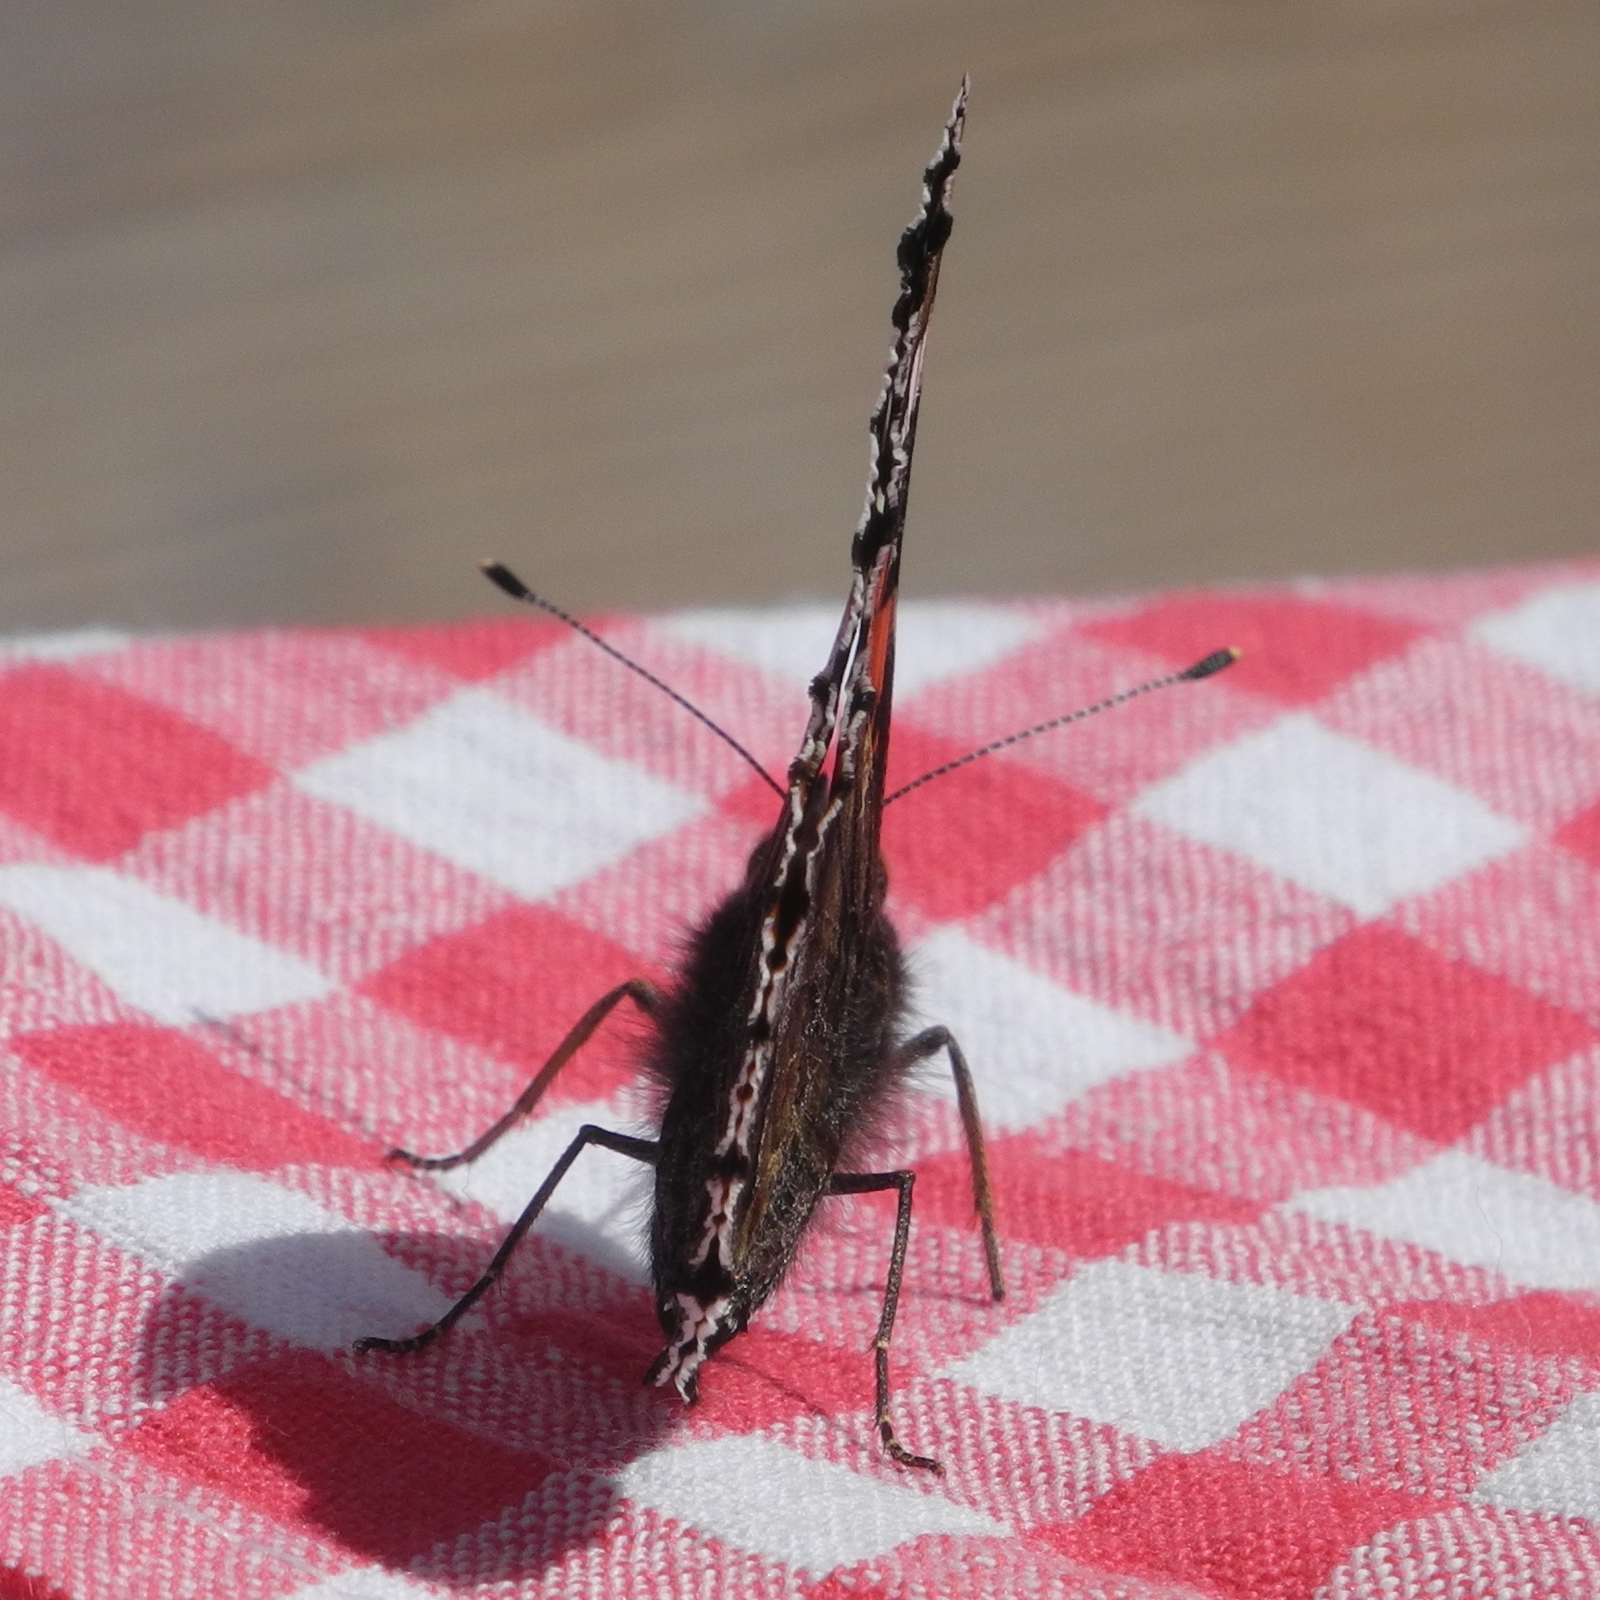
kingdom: Animalia
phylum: Arthropoda
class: Insecta
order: Lepidoptera
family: Nymphalidae
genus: Vanessa
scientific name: Vanessa atalanta
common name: Red admiral
